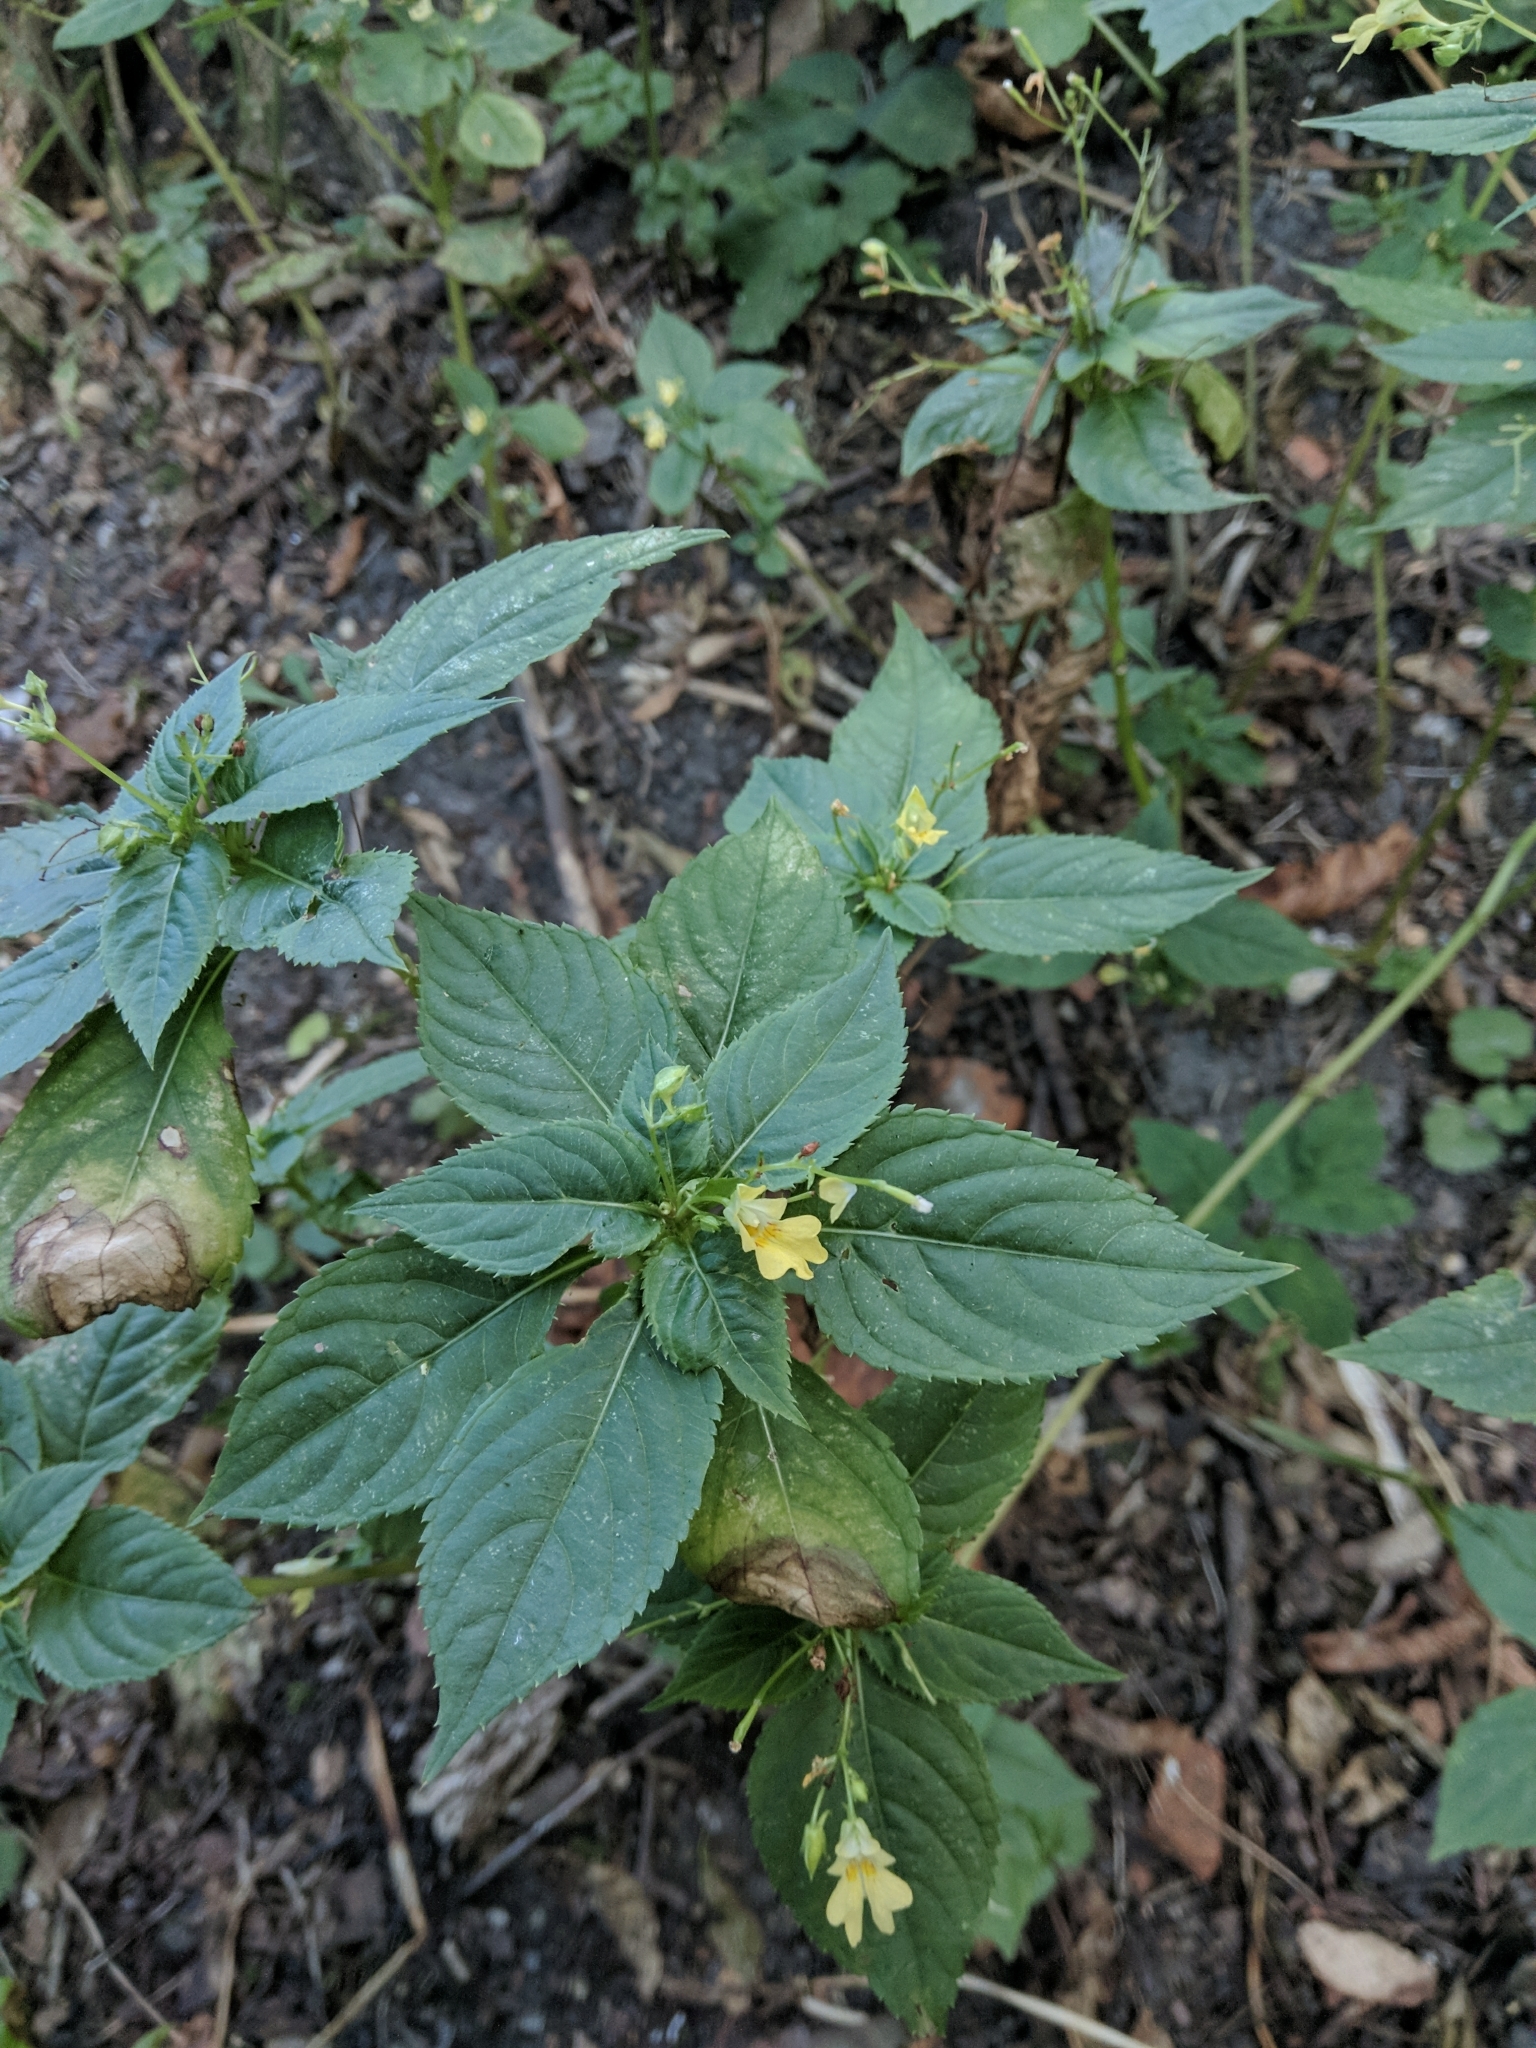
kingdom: Plantae
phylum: Tracheophyta
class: Magnoliopsida
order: Ericales
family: Balsaminaceae
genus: Impatiens
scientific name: Impatiens parviflora
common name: Small balsam
